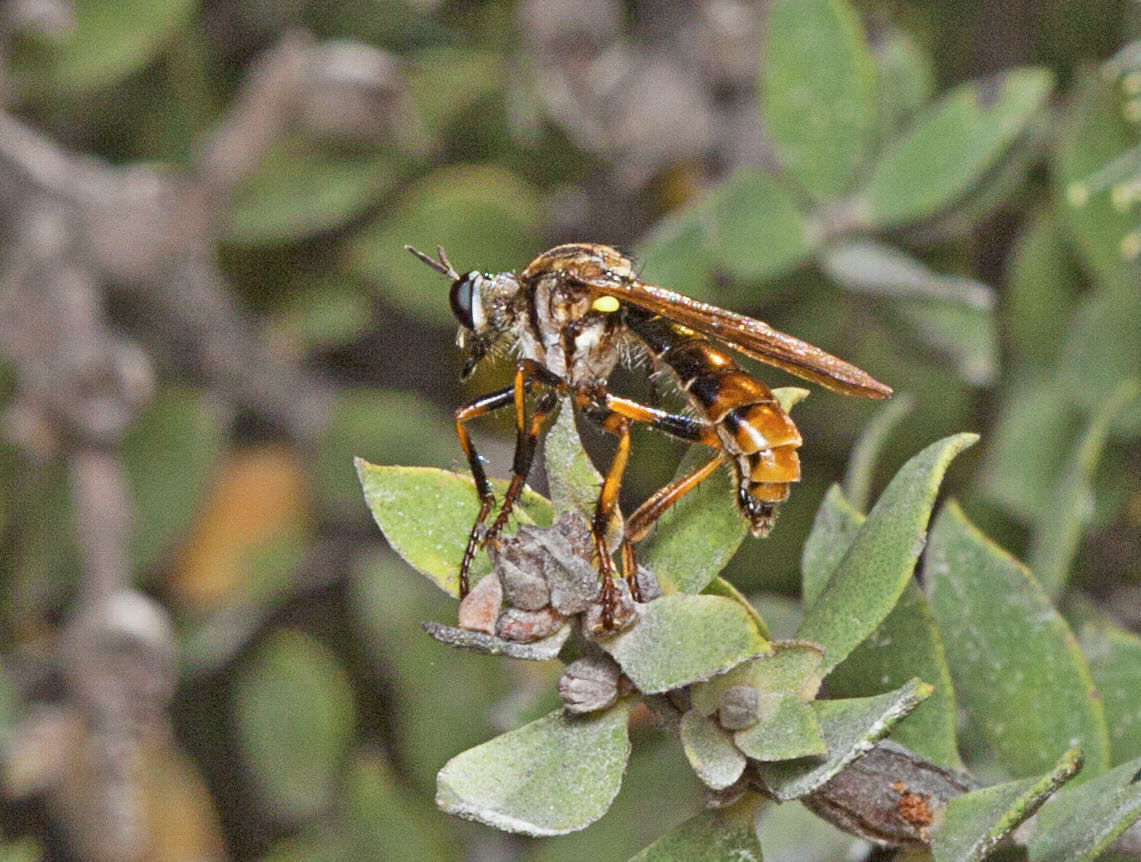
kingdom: Animalia
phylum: Arthropoda
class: Insecta
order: Diptera
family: Asilidae
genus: Austrosaropogon
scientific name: Austrosaropogon claviger
